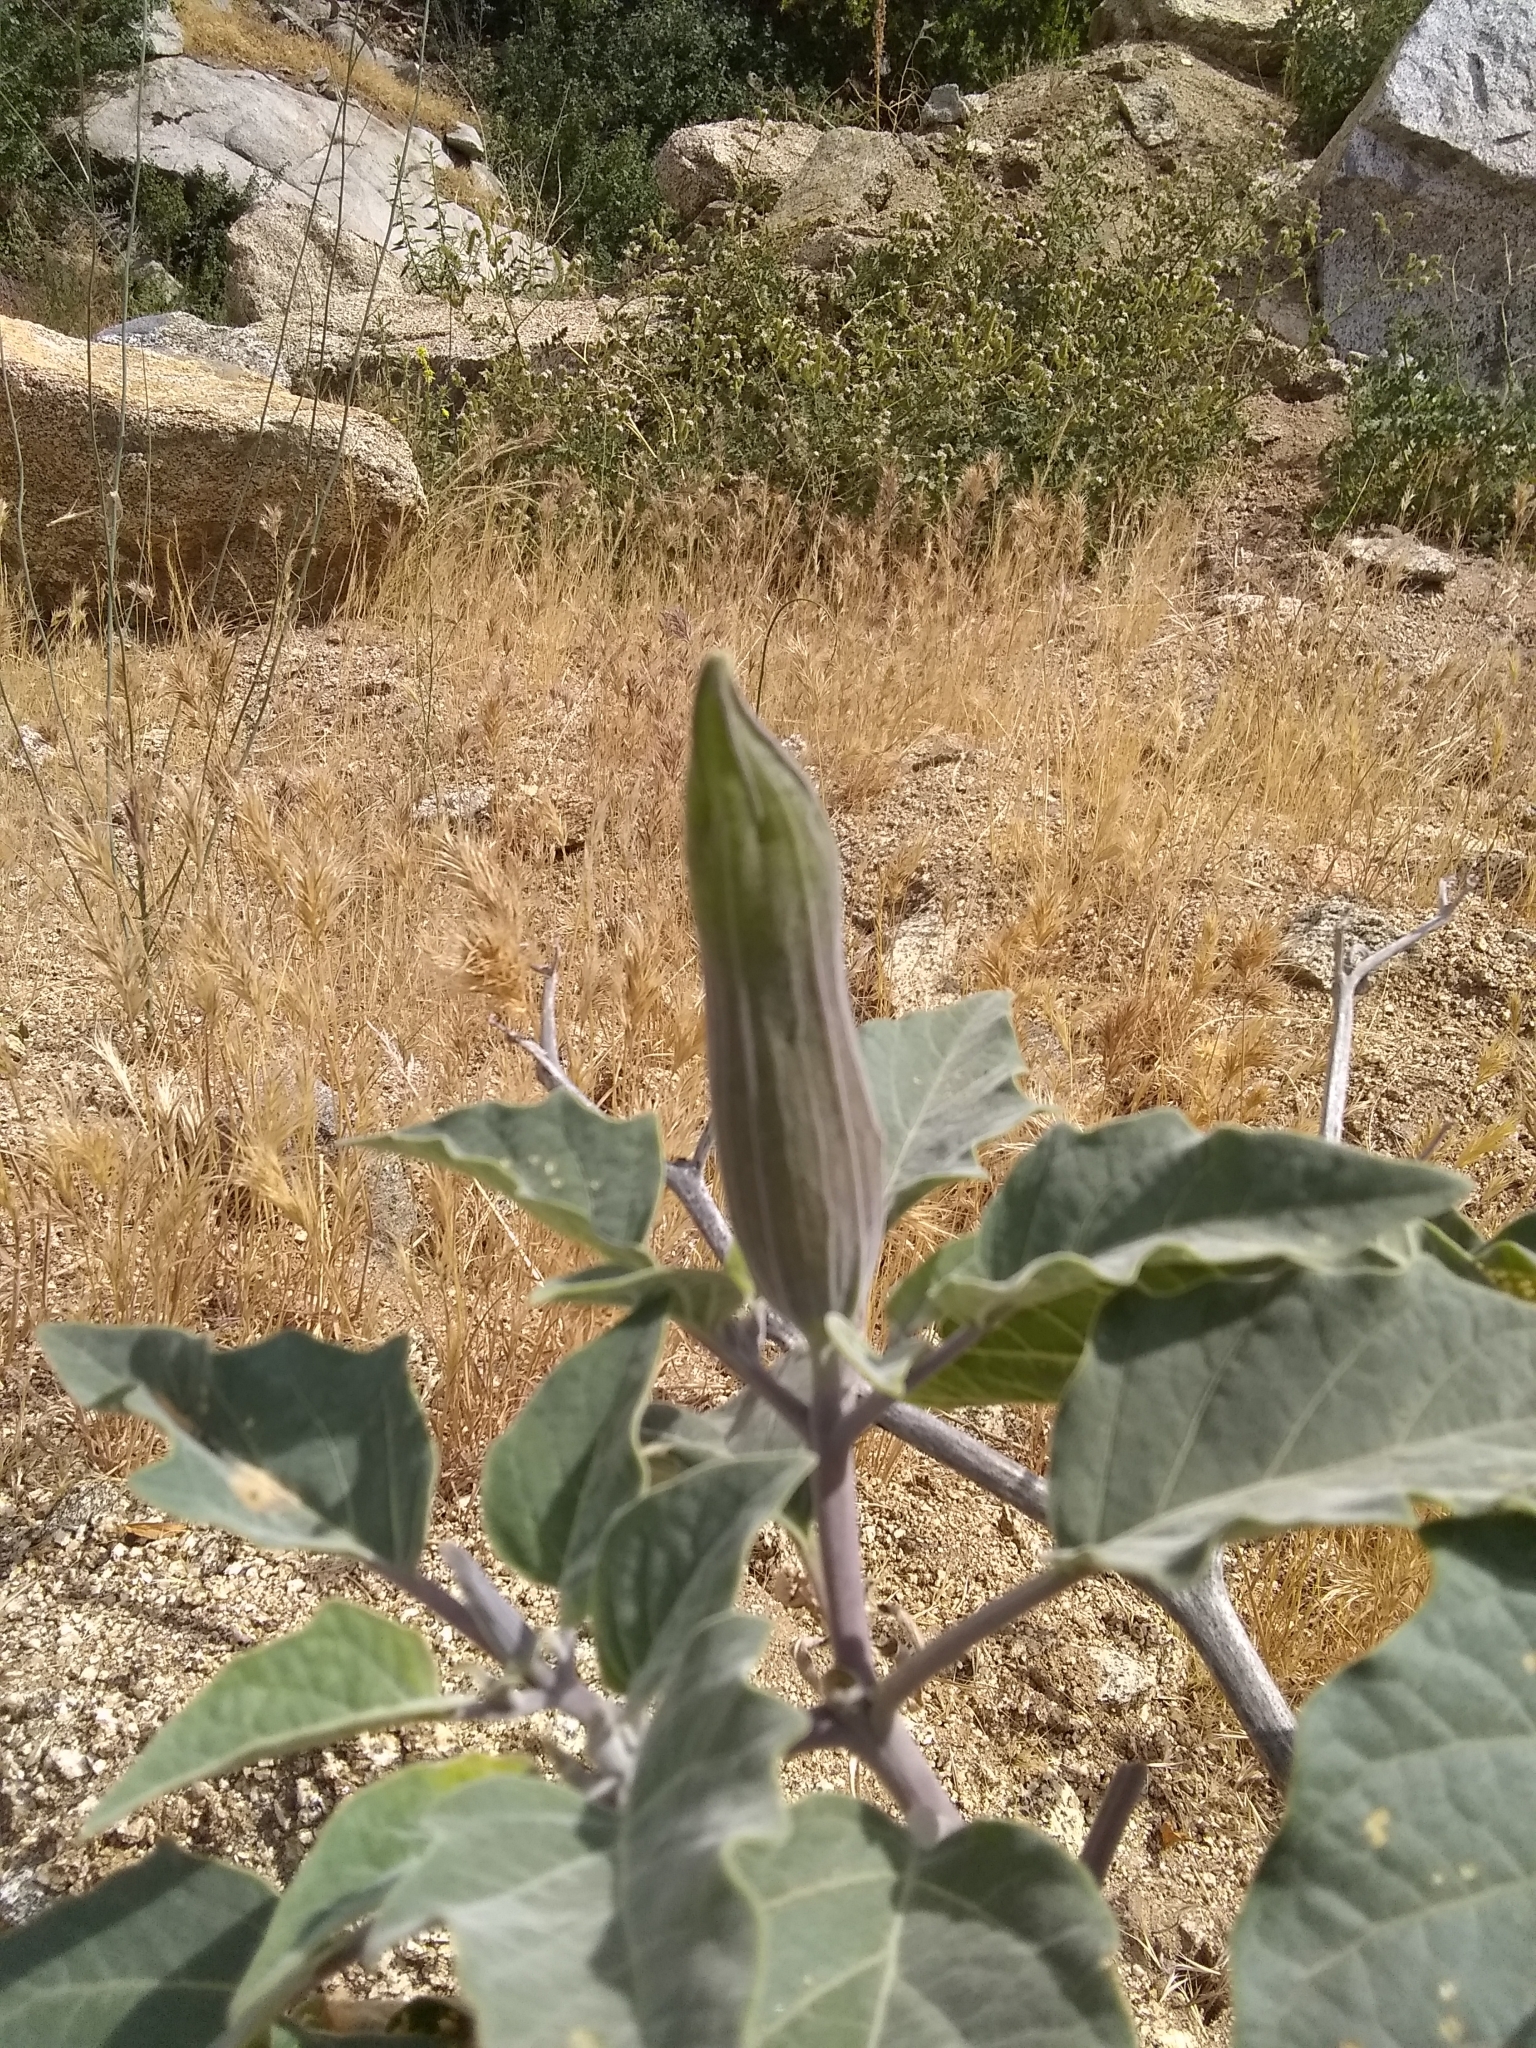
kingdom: Plantae
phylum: Tracheophyta
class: Magnoliopsida
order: Solanales
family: Solanaceae
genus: Datura
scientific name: Datura wrightii
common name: Sacred thorn-apple
